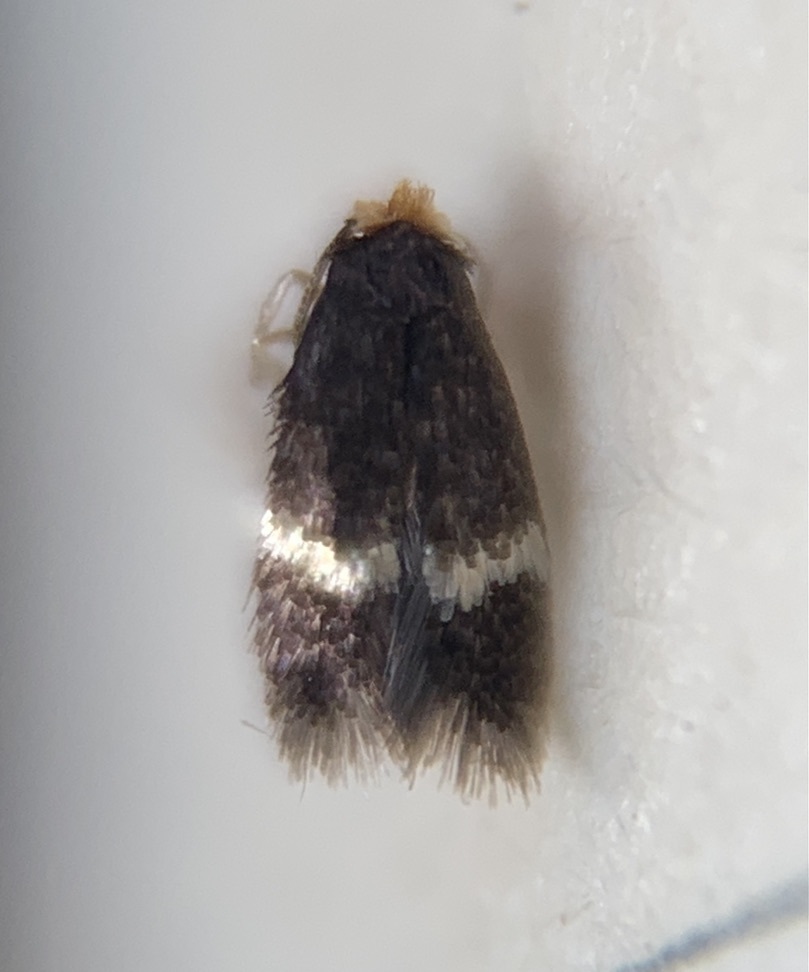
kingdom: Animalia
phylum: Arthropoda
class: Insecta
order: Lepidoptera
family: Nepticulidae
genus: Stigmella
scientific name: Stigmella rosaefoliella
